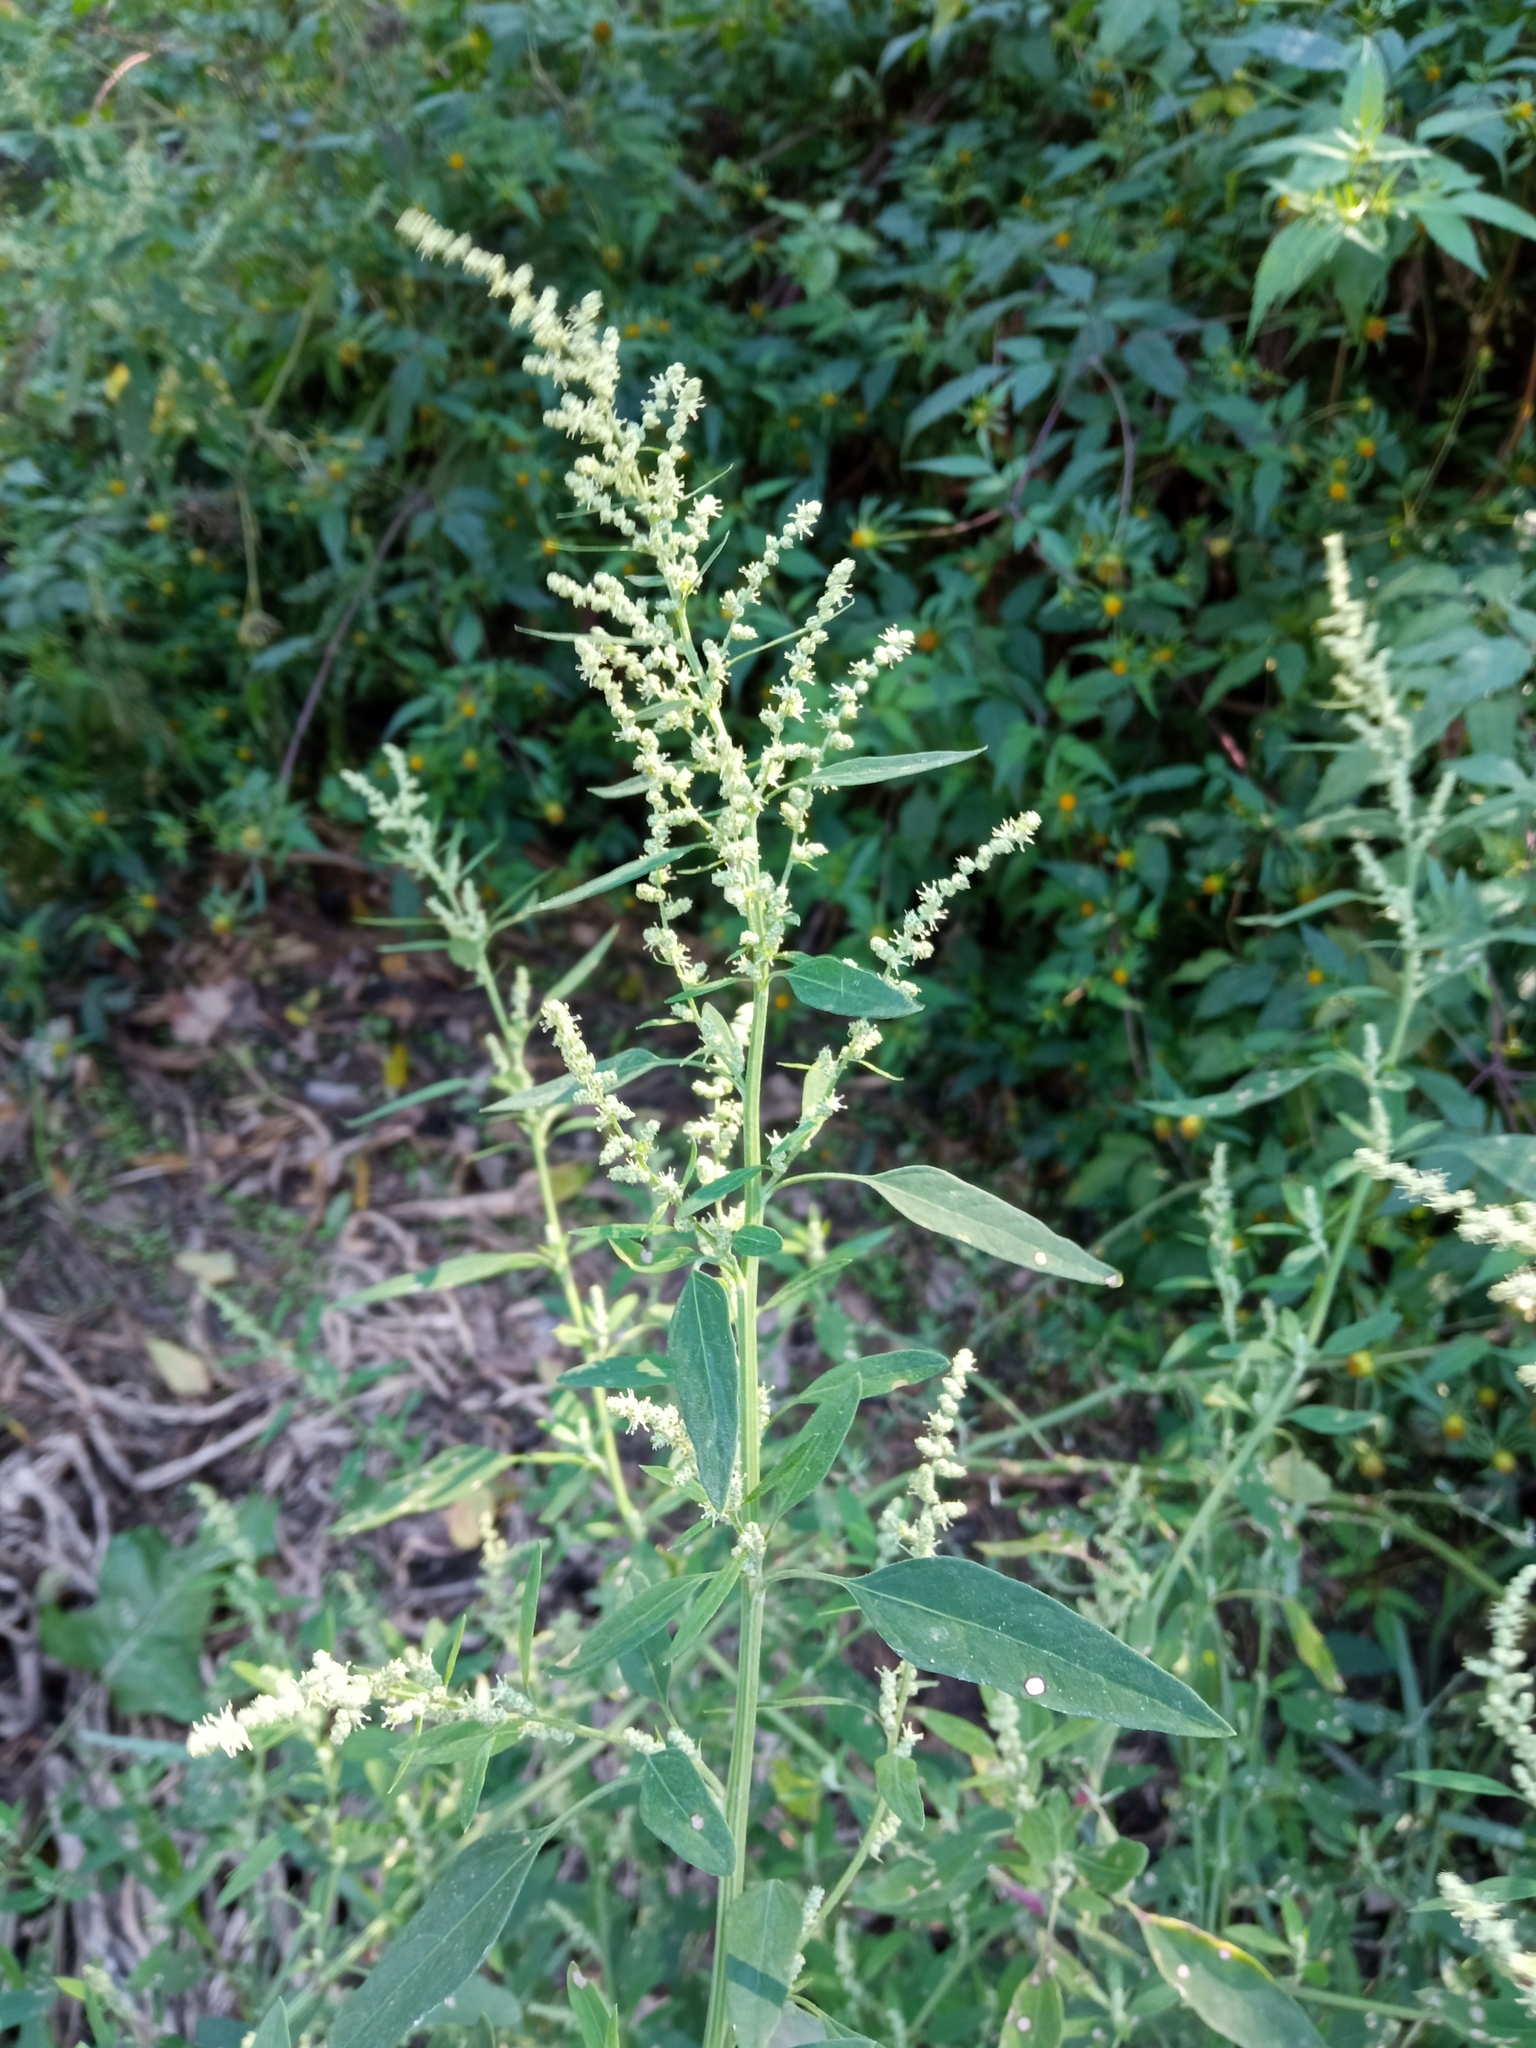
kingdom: Plantae
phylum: Tracheophyta
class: Magnoliopsida
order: Caryophyllales
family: Amaranthaceae
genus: Chenopodium
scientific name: Chenopodium album
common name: Fat-hen
